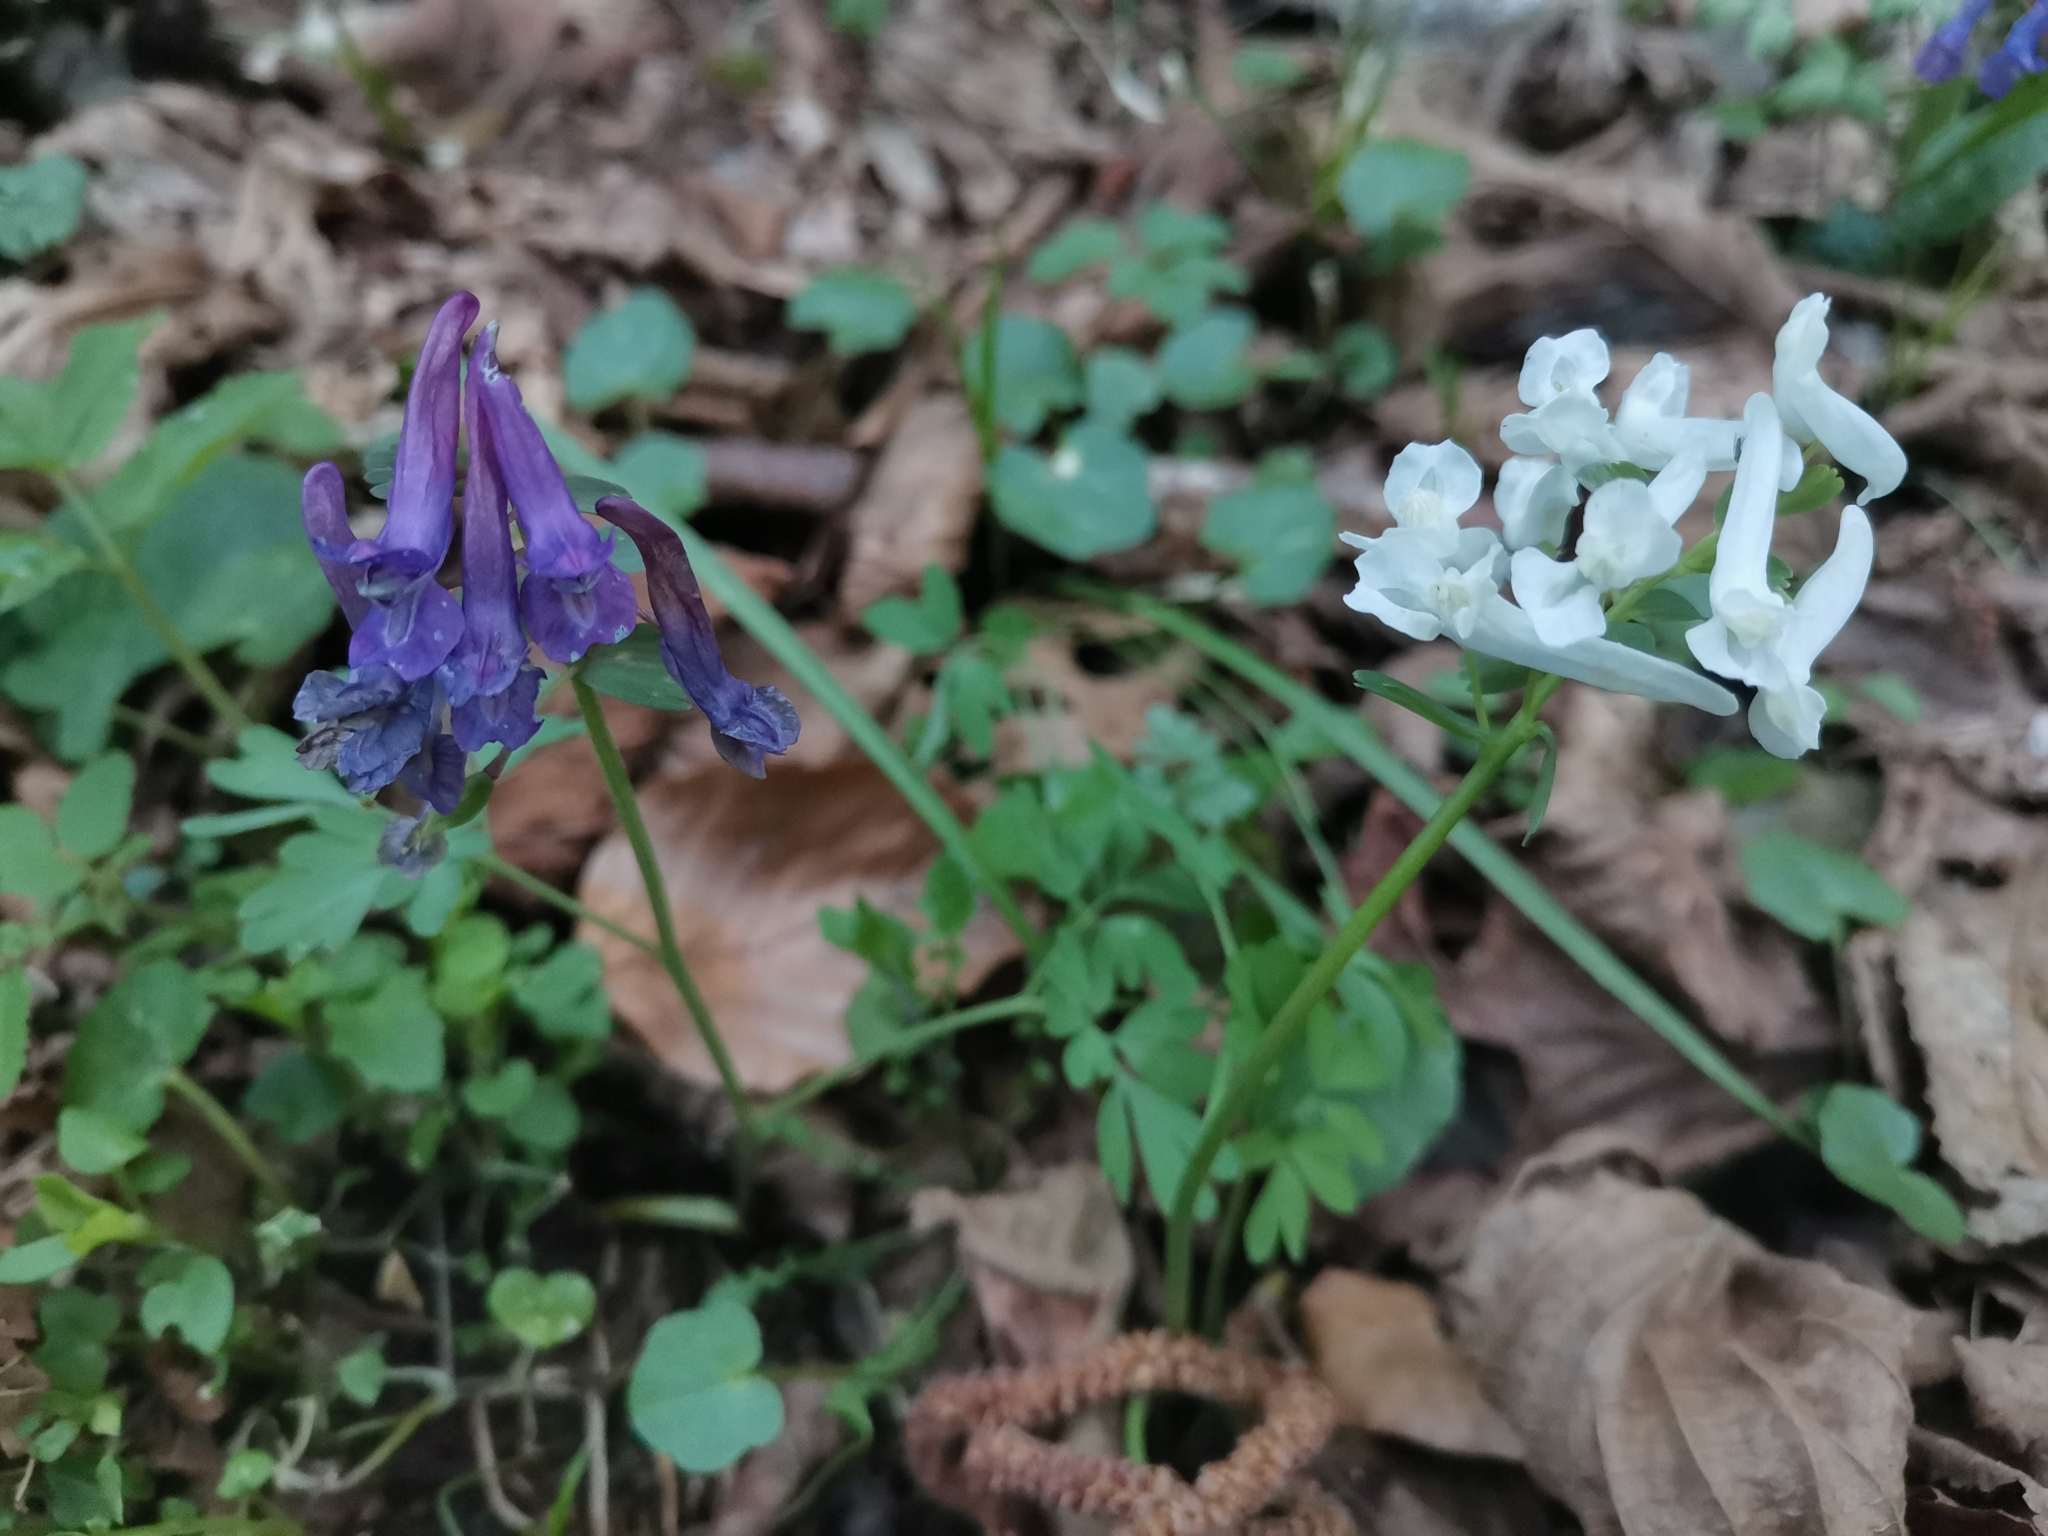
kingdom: Plantae
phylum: Tracheophyta
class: Magnoliopsida
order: Ranunculales
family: Papaveraceae
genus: Corydalis
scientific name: Corydalis solida
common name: Bird-in-a-bush
